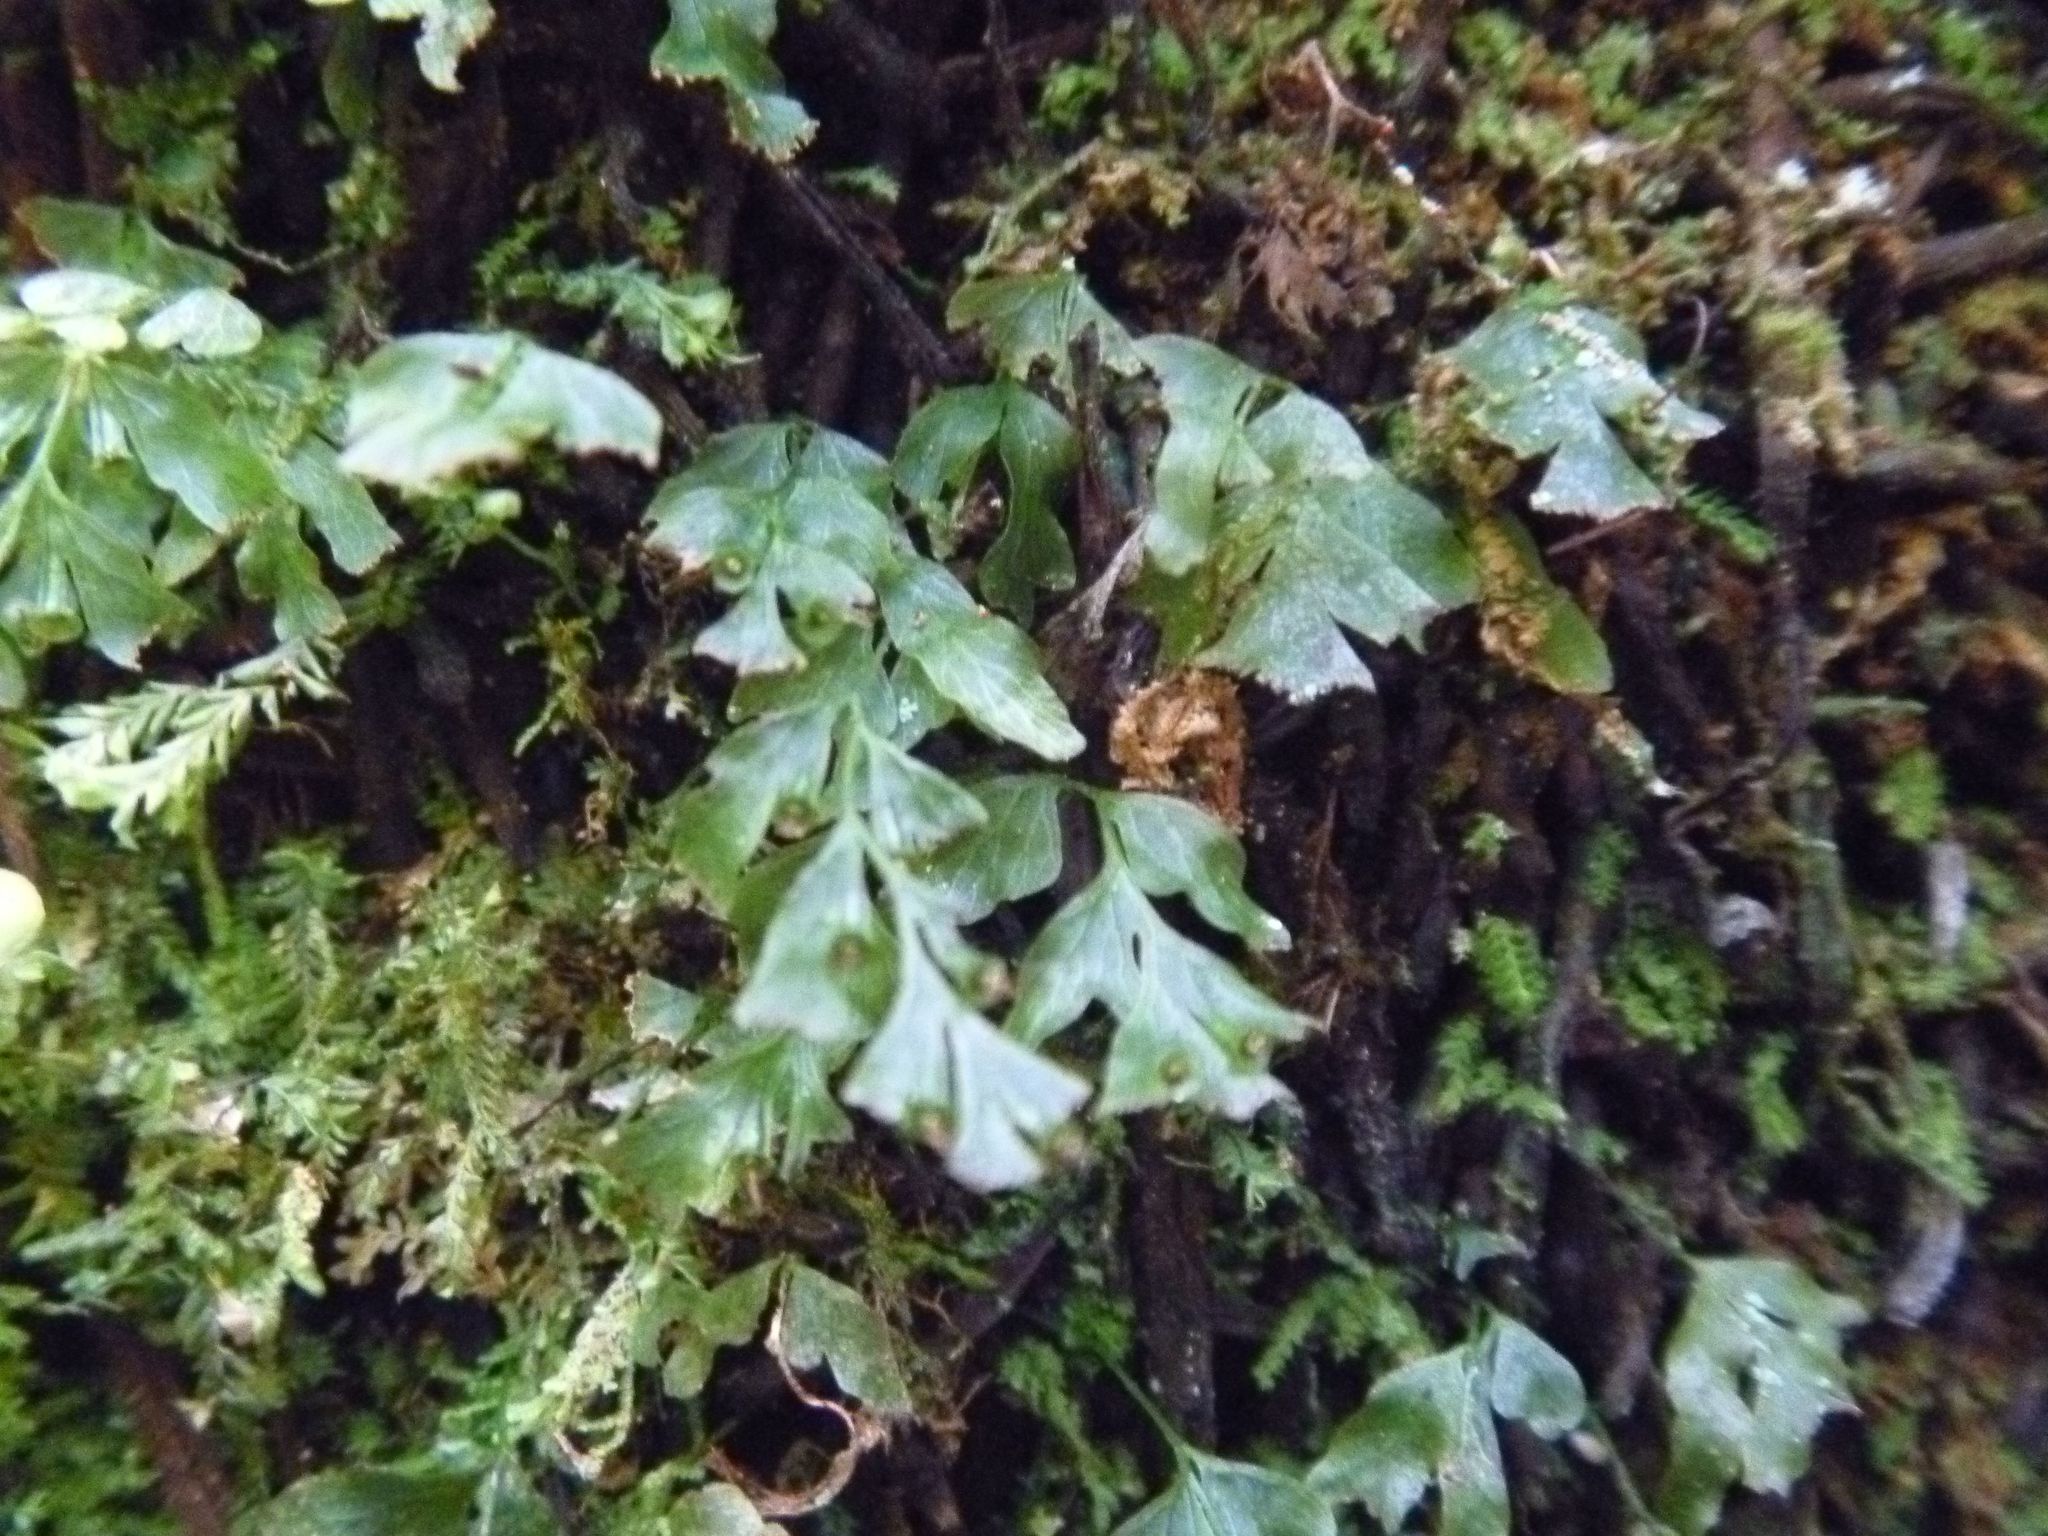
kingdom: Plantae
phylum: Tracheophyta
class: Polypodiopsida
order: Hymenophyllales
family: Hymenophyllaceae
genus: Polyphlebium
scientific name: Polyphlebium venosum
